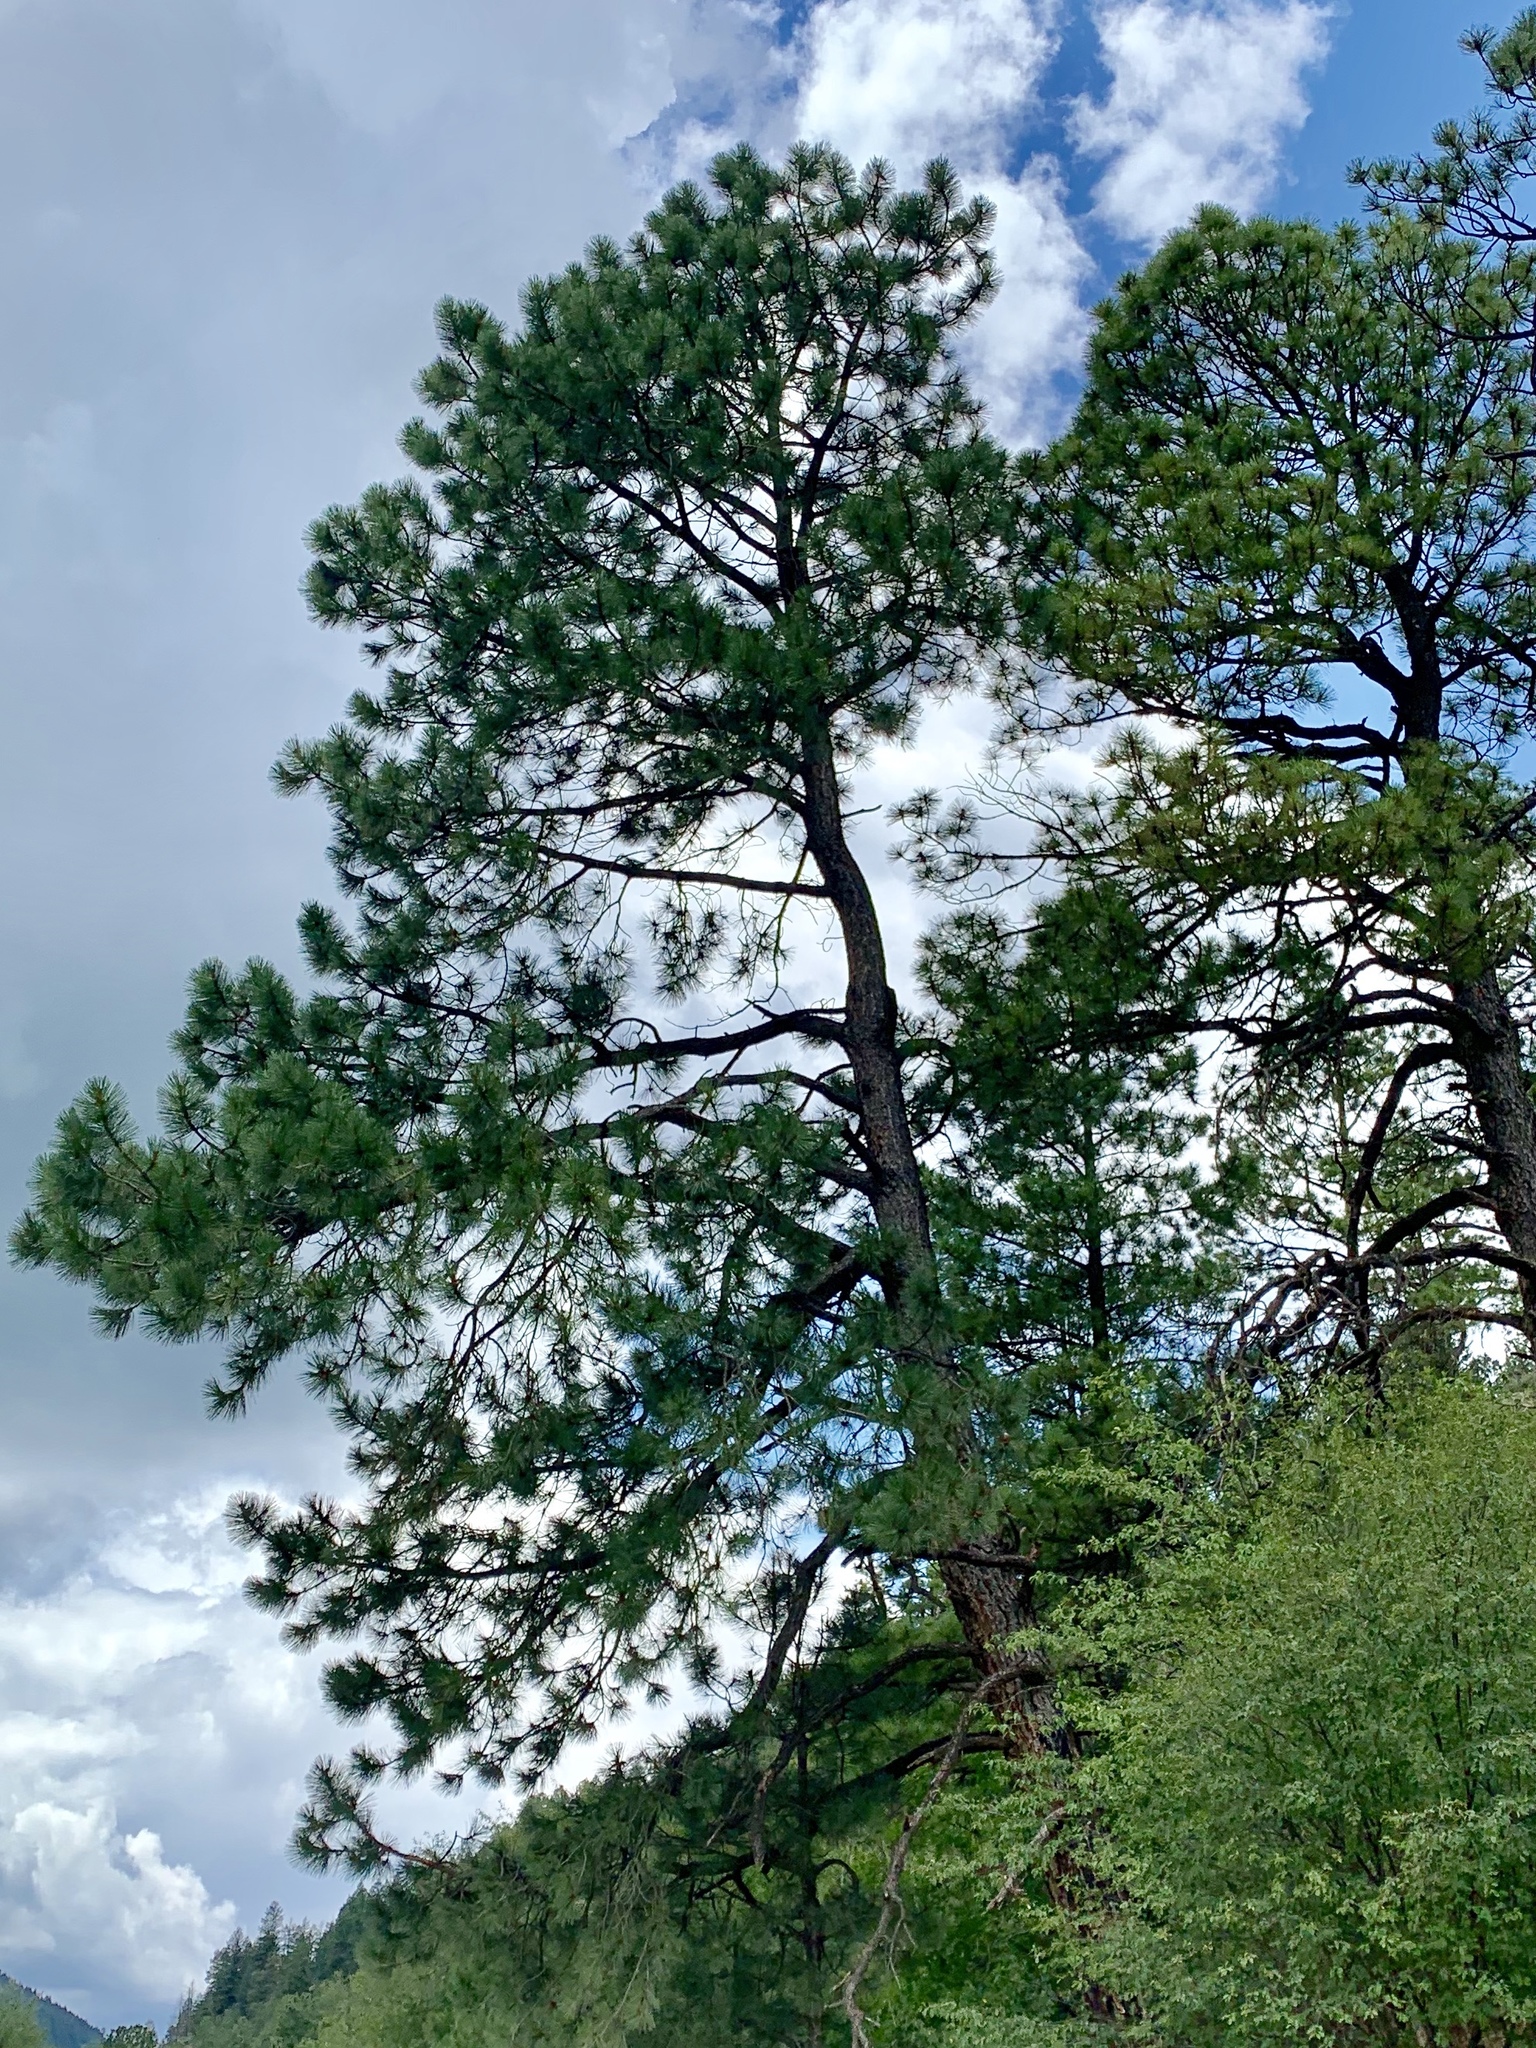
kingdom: Plantae
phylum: Tracheophyta
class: Pinopsida
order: Pinales
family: Pinaceae
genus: Pinus
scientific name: Pinus ponderosa
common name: Western yellow-pine
